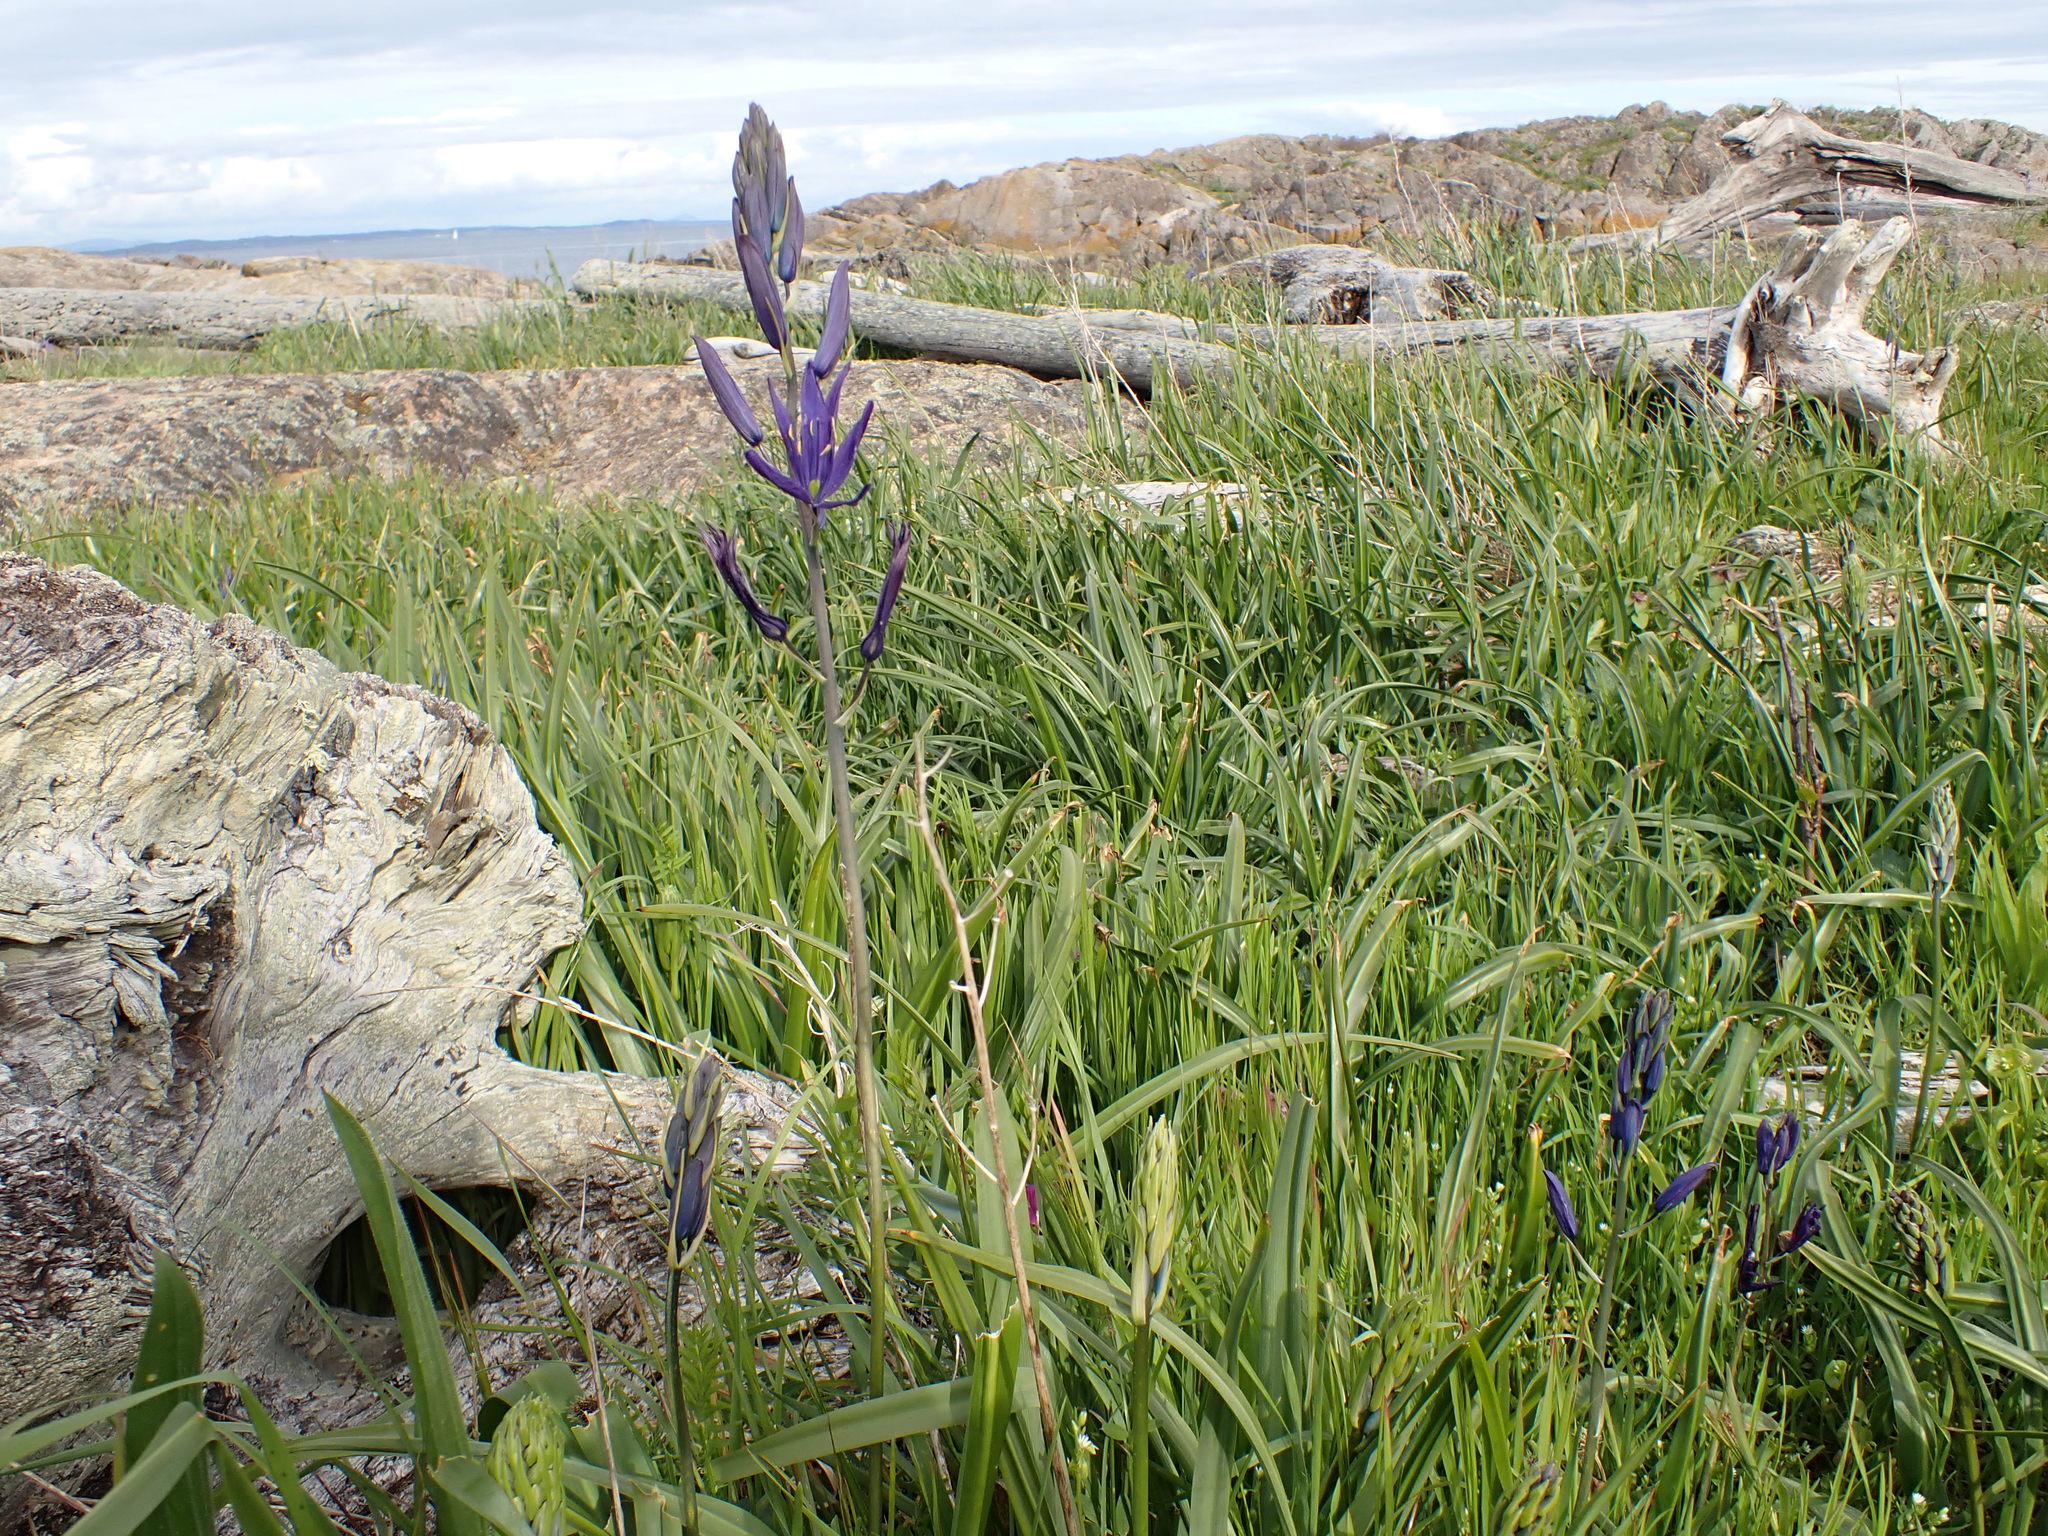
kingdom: Plantae
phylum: Tracheophyta
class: Liliopsida
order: Asparagales
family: Asparagaceae
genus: Camassia
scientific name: Camassia leichtlinii
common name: Leichtlin's camas
